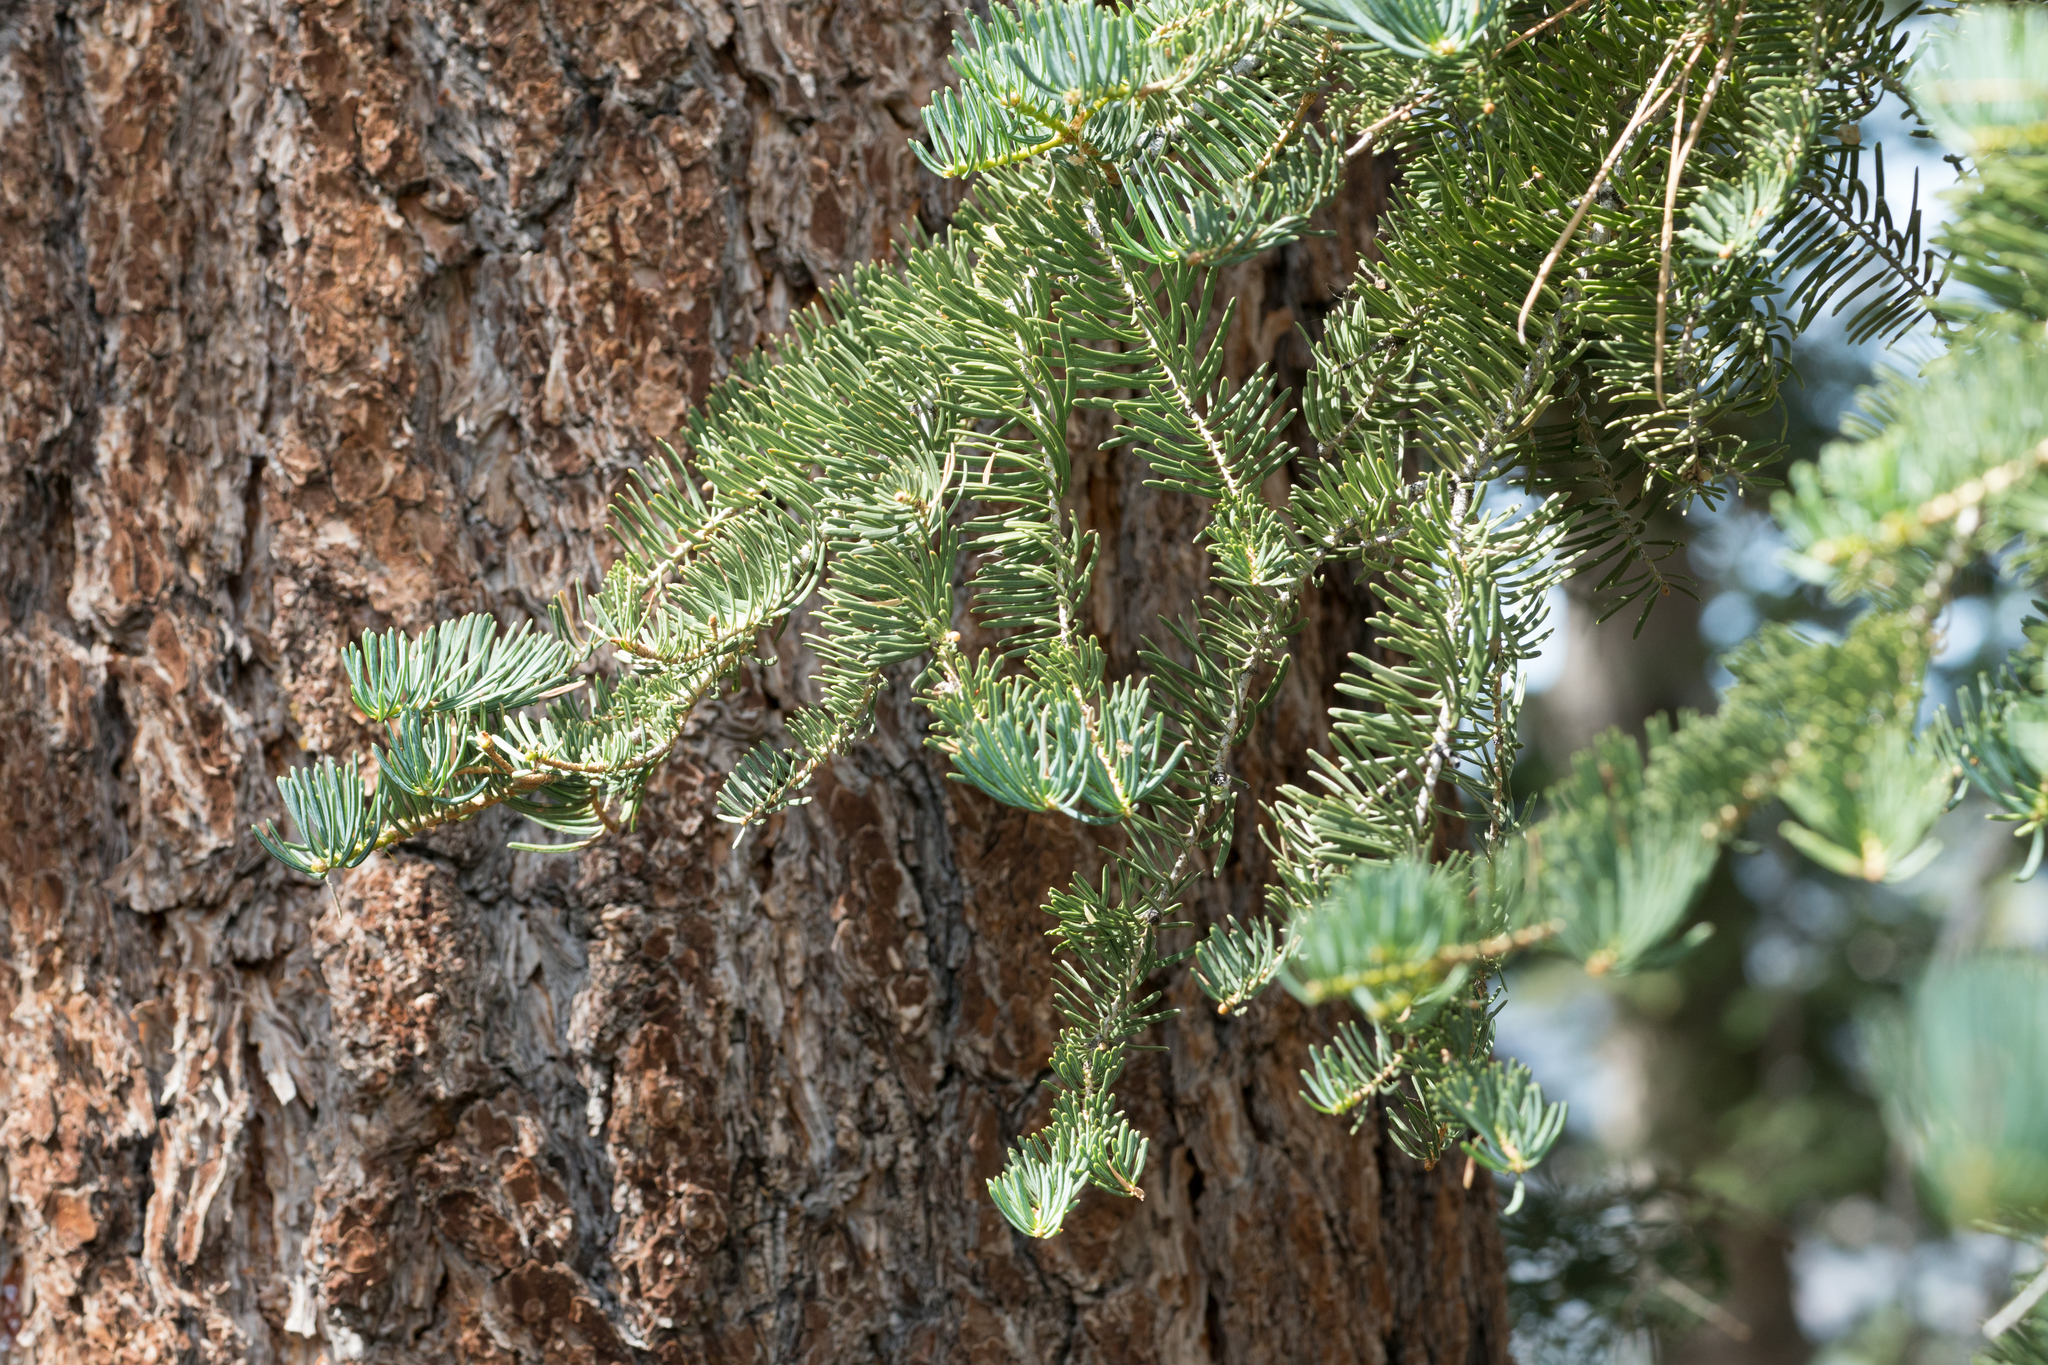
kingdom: Plantae
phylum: Tracheophyta
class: Pinopsida
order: Pinales
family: Pinaceae
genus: Abies
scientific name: Abies concolor
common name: Colorado fir
